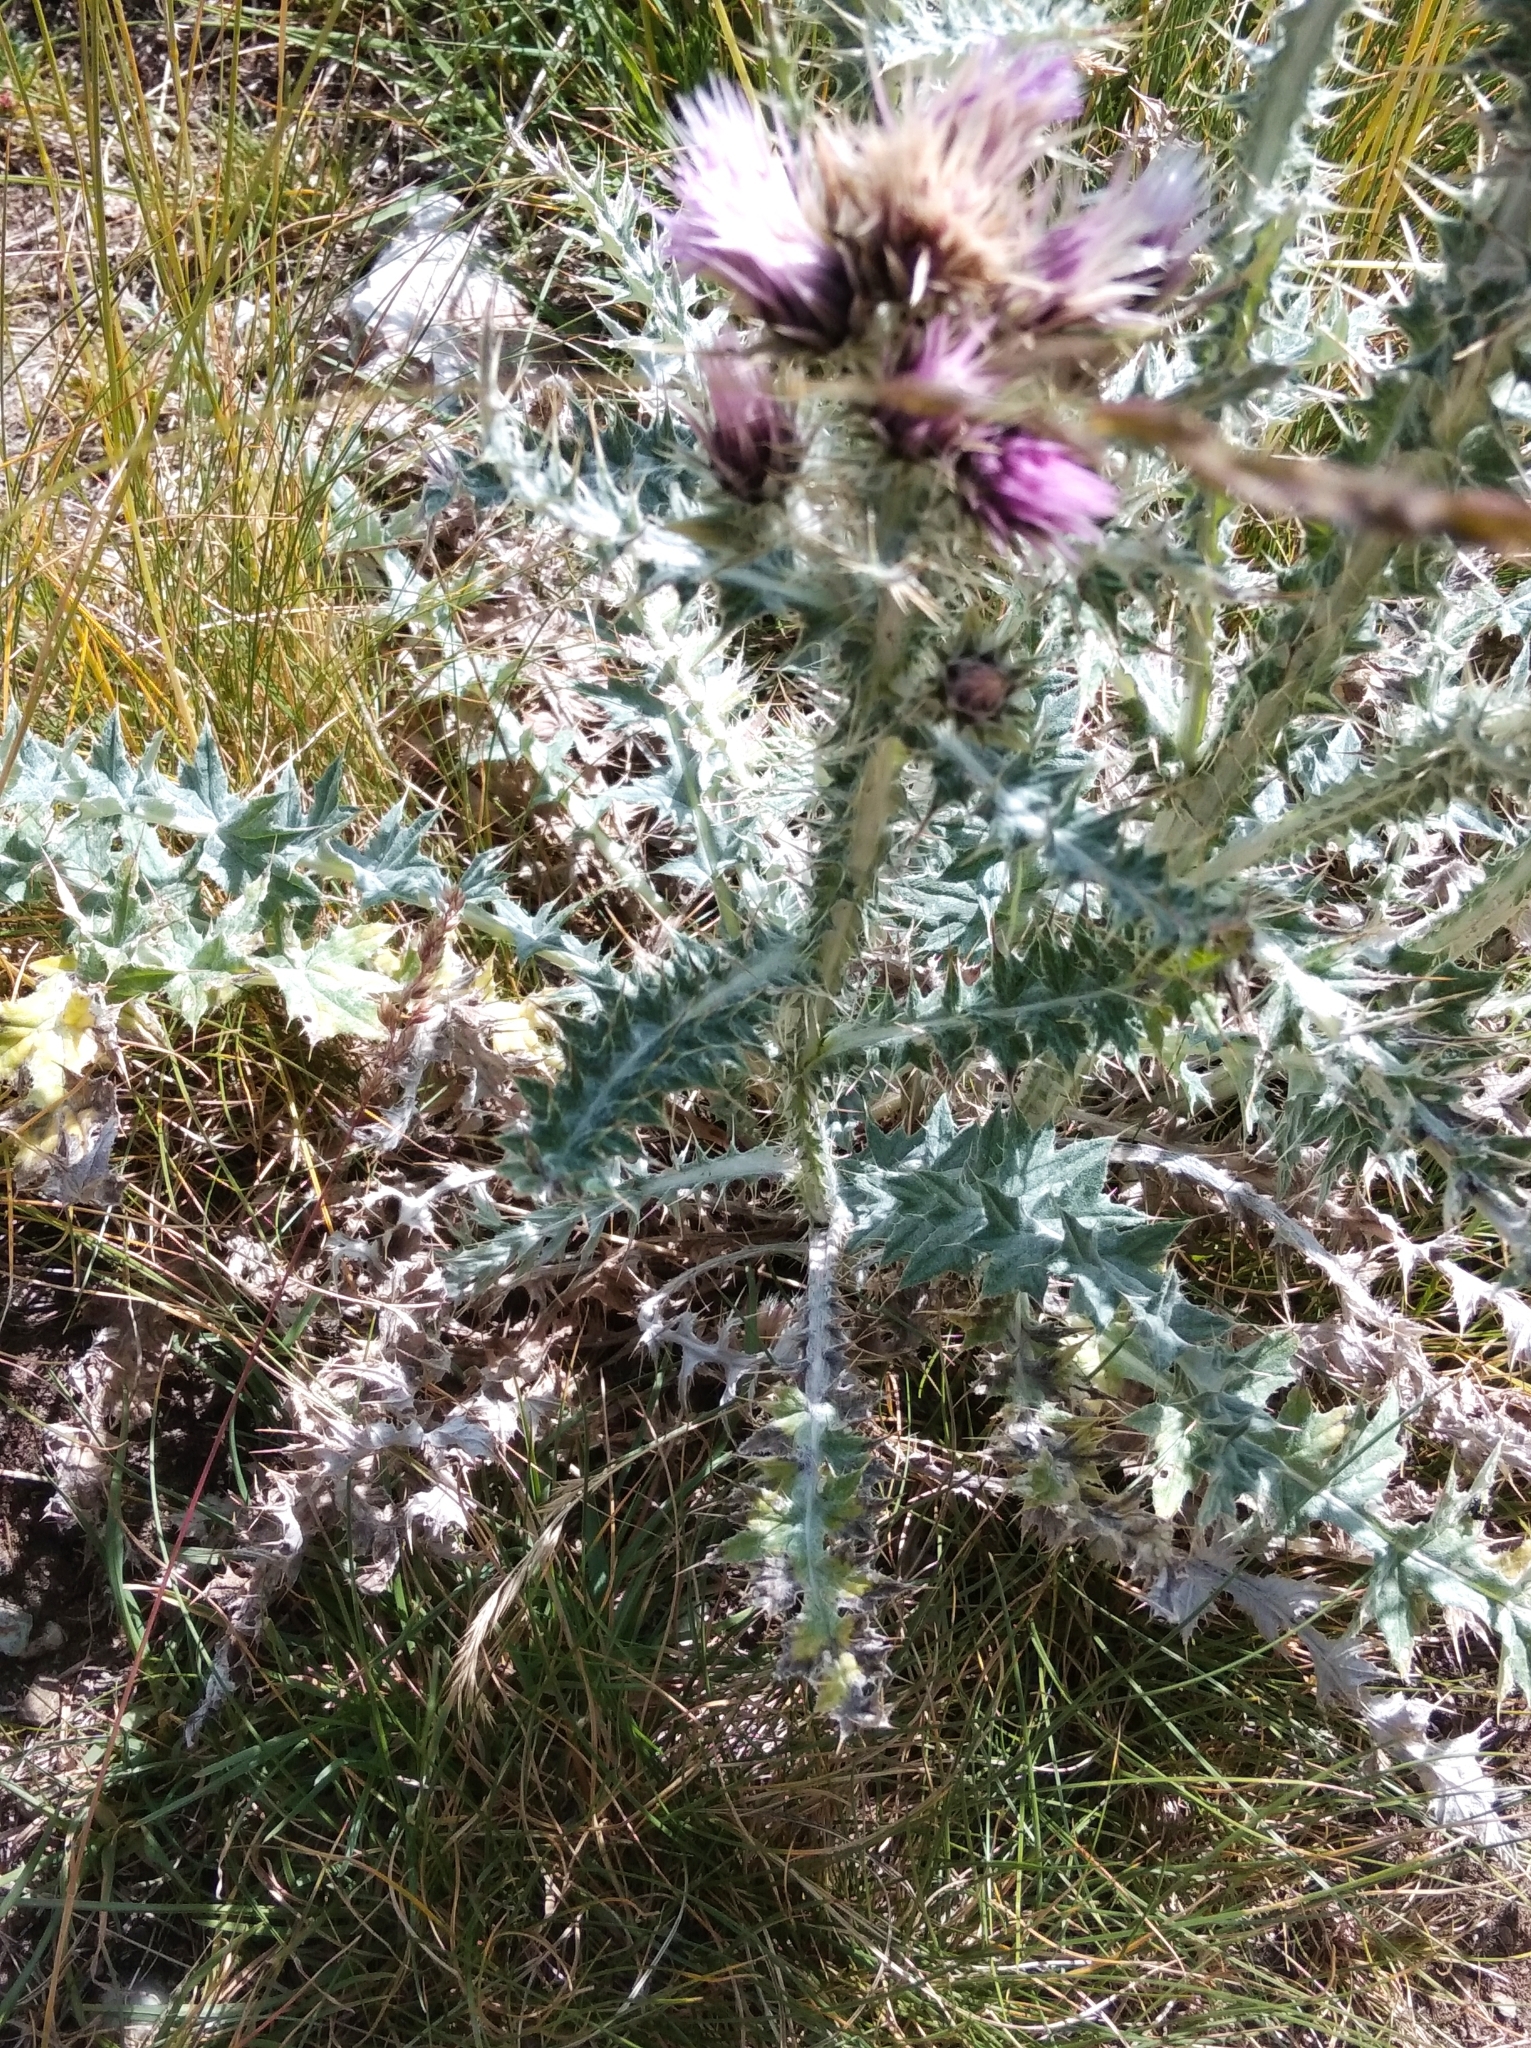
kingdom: Plantae
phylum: Tracheophyta
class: Magnoliopsida
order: Asterales
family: Asteraceae
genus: Carduus
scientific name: Carduus carlinoides
